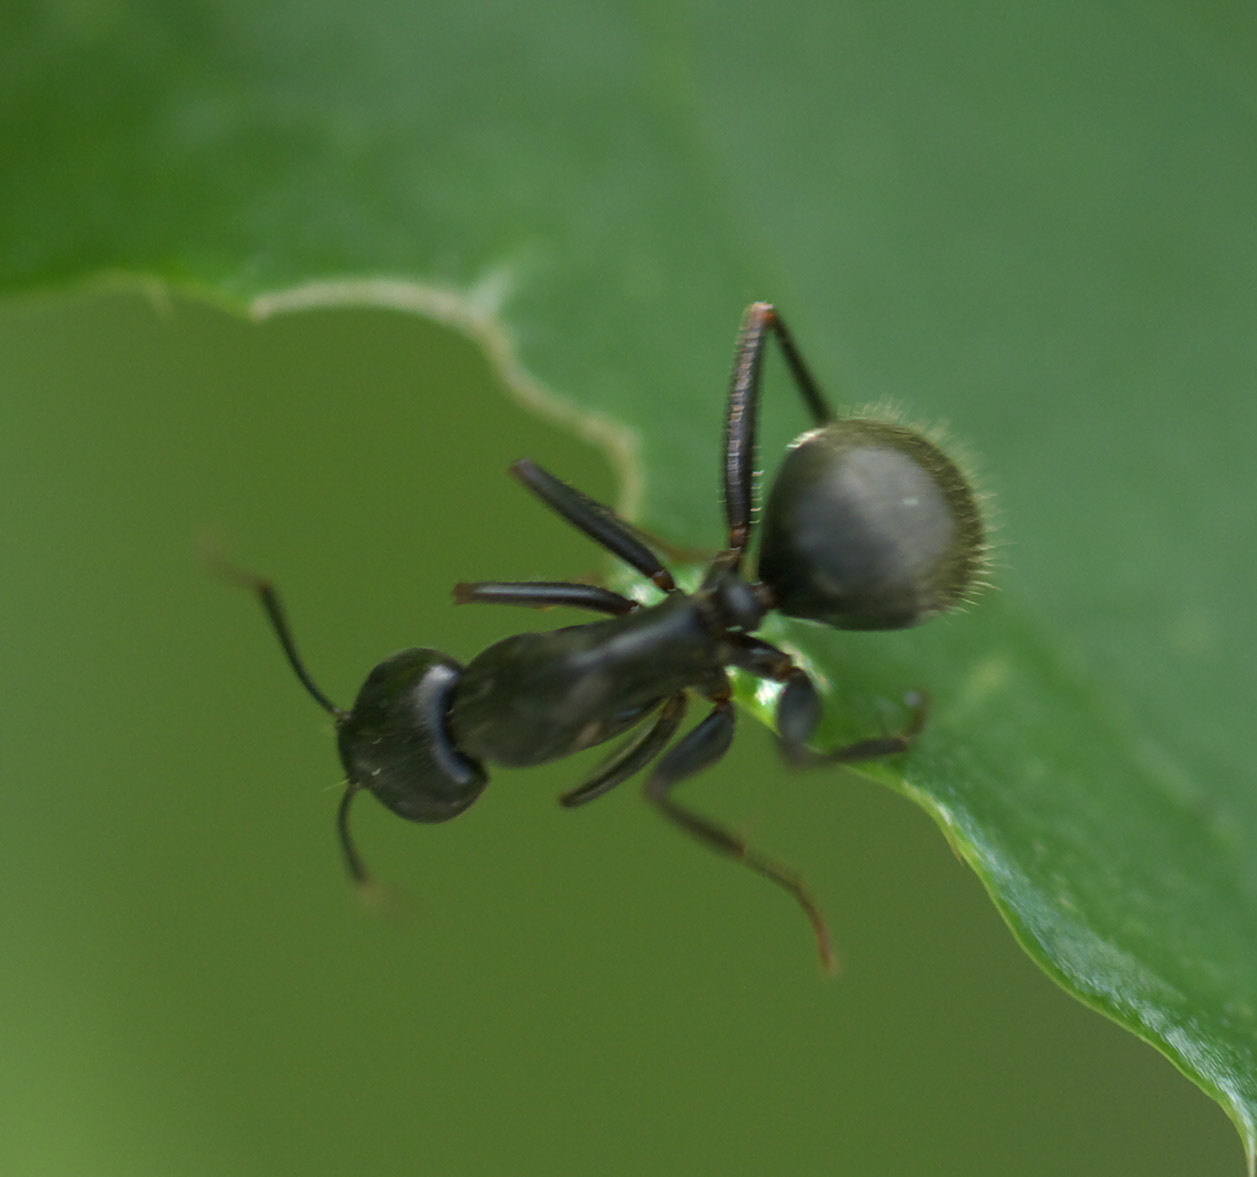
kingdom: Animalia
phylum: Arthropoda
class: Insecta
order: Hymenoptera
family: Formicidae
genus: Camponotus
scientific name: Camponotus pennsylvanicus
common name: Black carpenter ant
